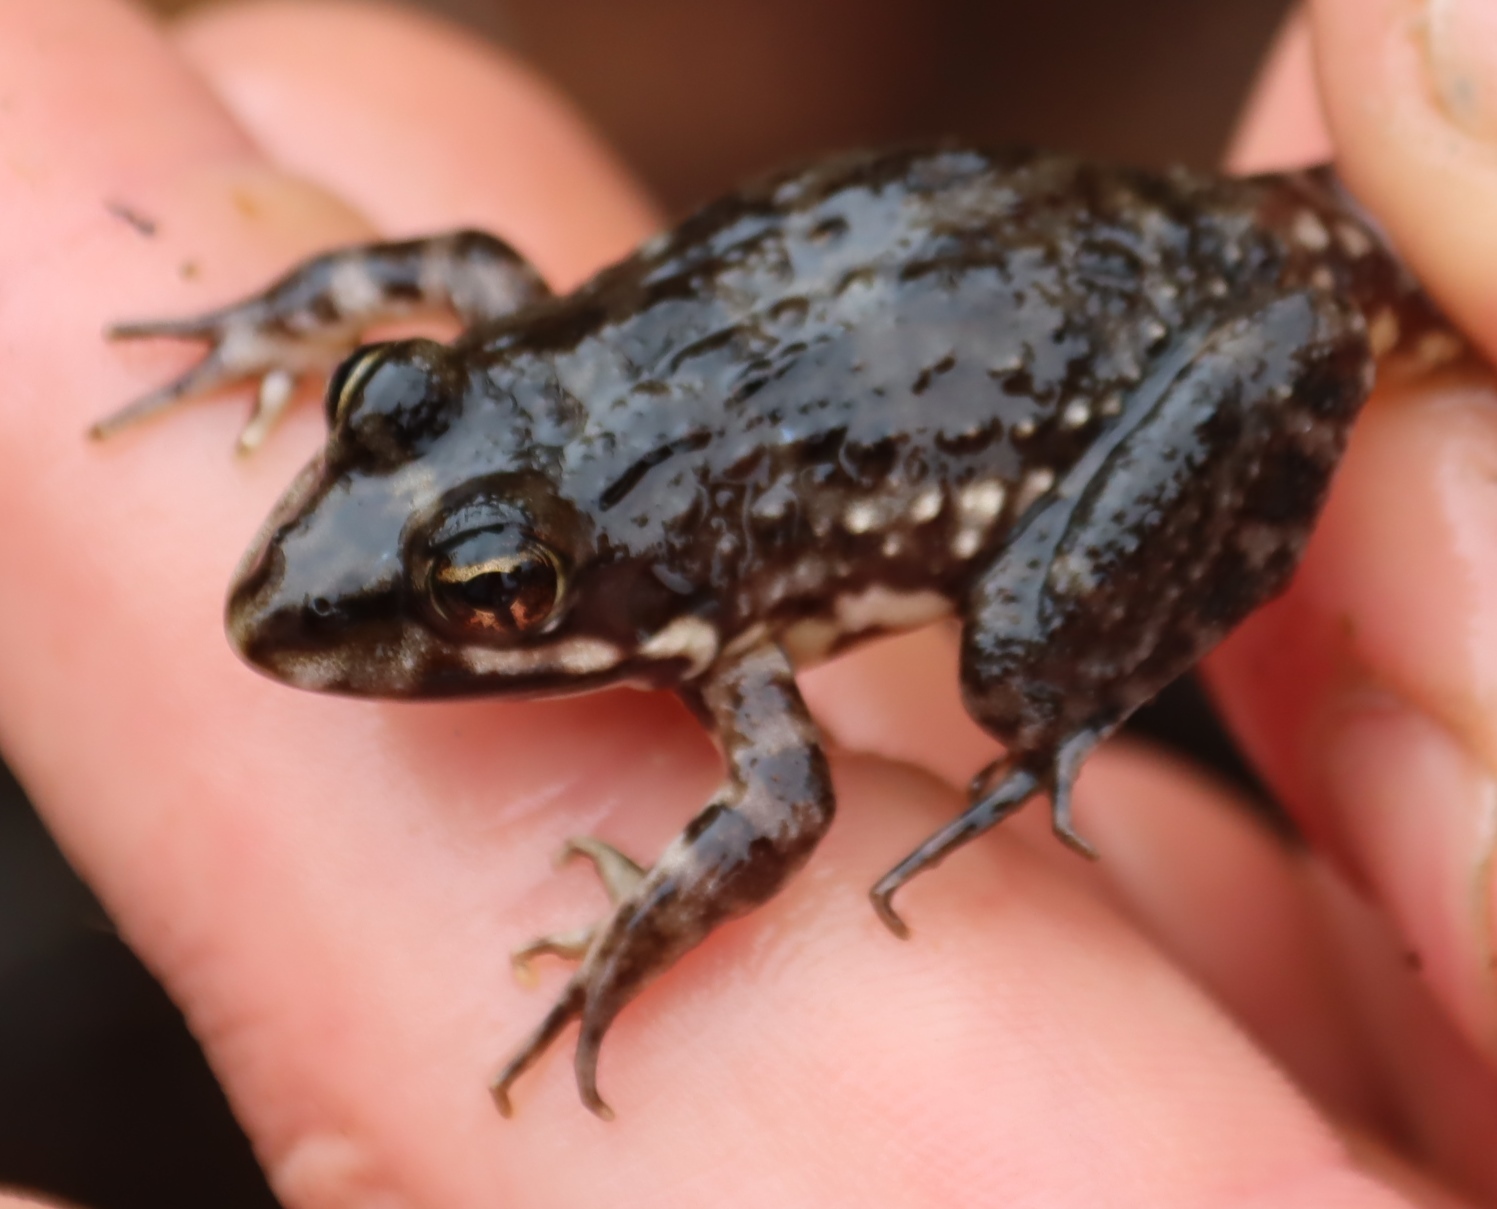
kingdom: Animalia
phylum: Chordata
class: Amphibia
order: Anura
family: Pyxicephalidae
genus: Amietia
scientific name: Amietia fuscigula
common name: Cape rana
